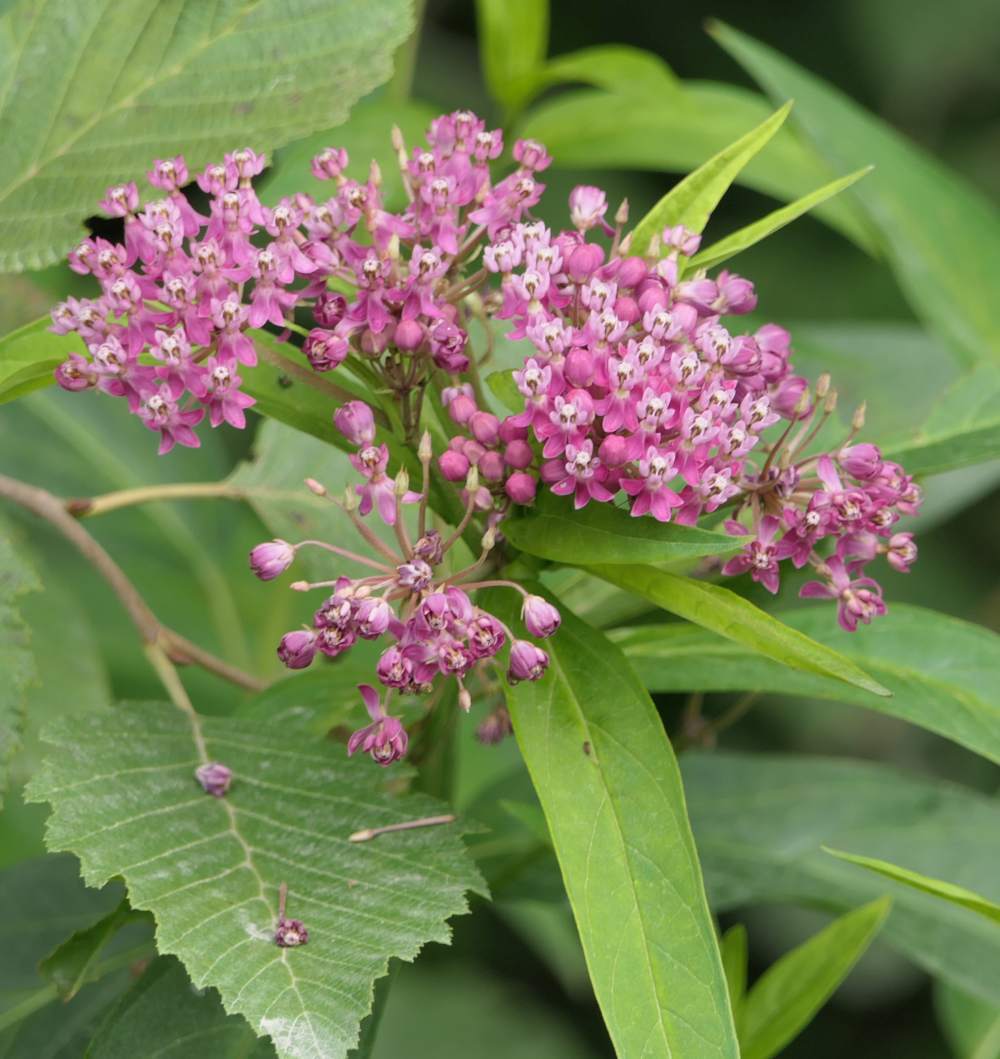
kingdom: Plantae
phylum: Tracheophyta
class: Magnoliopsida
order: Gentianales
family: Apocynaceae
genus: Asclepias
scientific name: Asclepias incarnata
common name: Swamp milkweed
